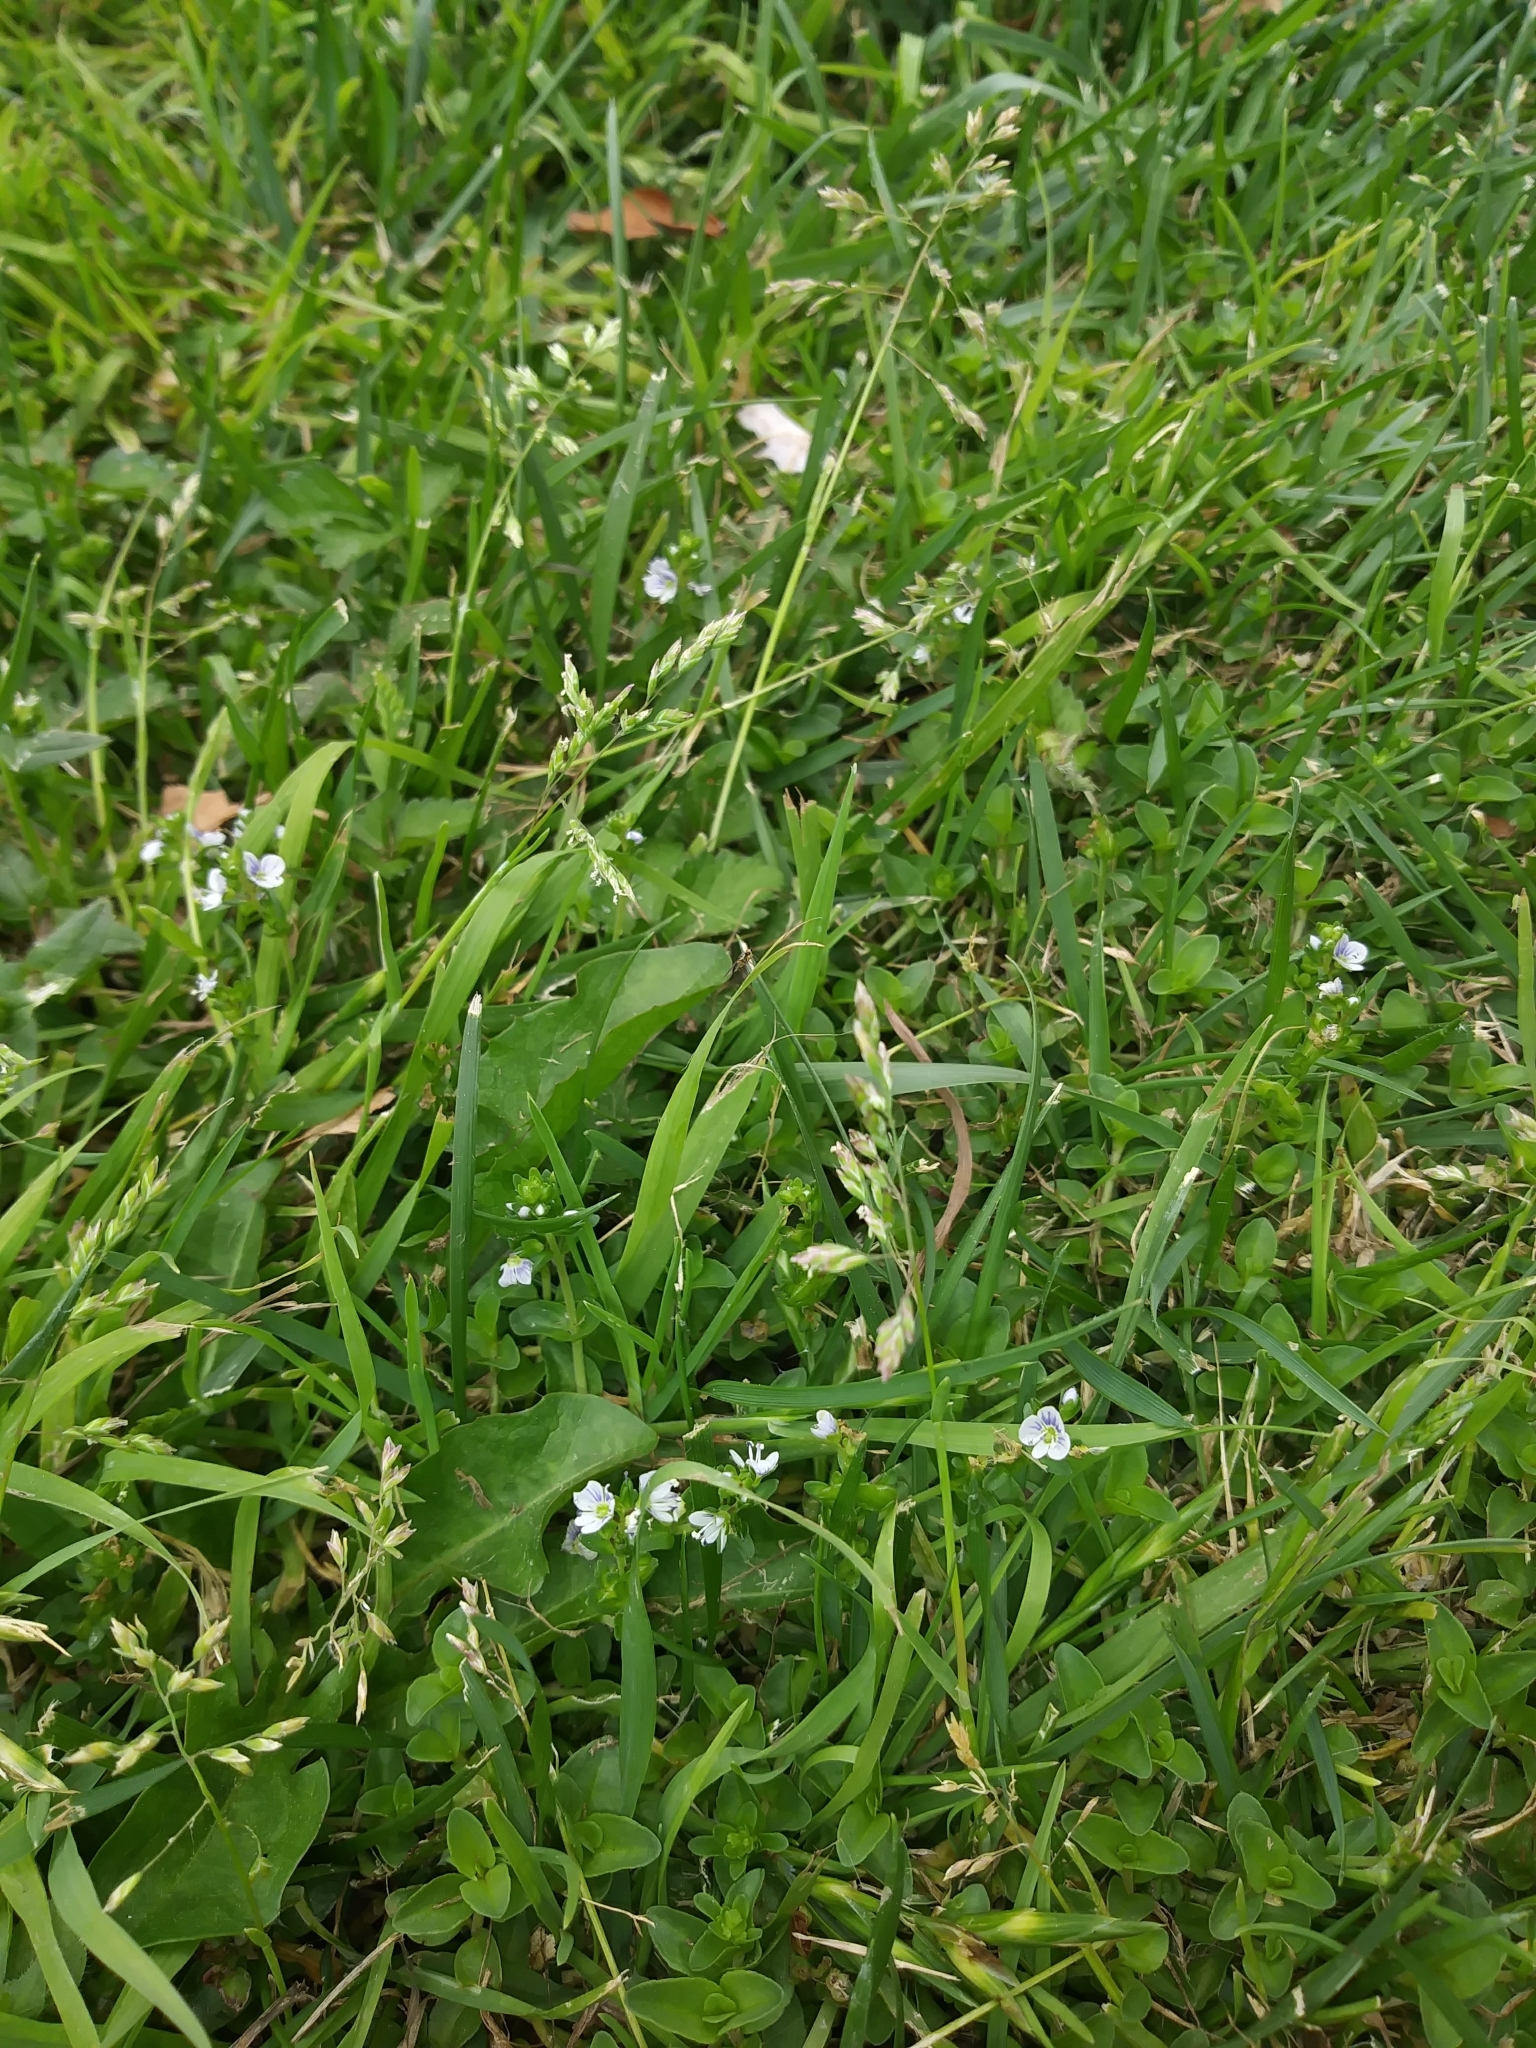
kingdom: Plantae
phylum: Tracheophyta
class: Magnoliopsida
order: Lamiales
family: Plantaginaceae
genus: Veronica
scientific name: Veronica serpyllifolia
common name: Thyme-leaved speedwell
